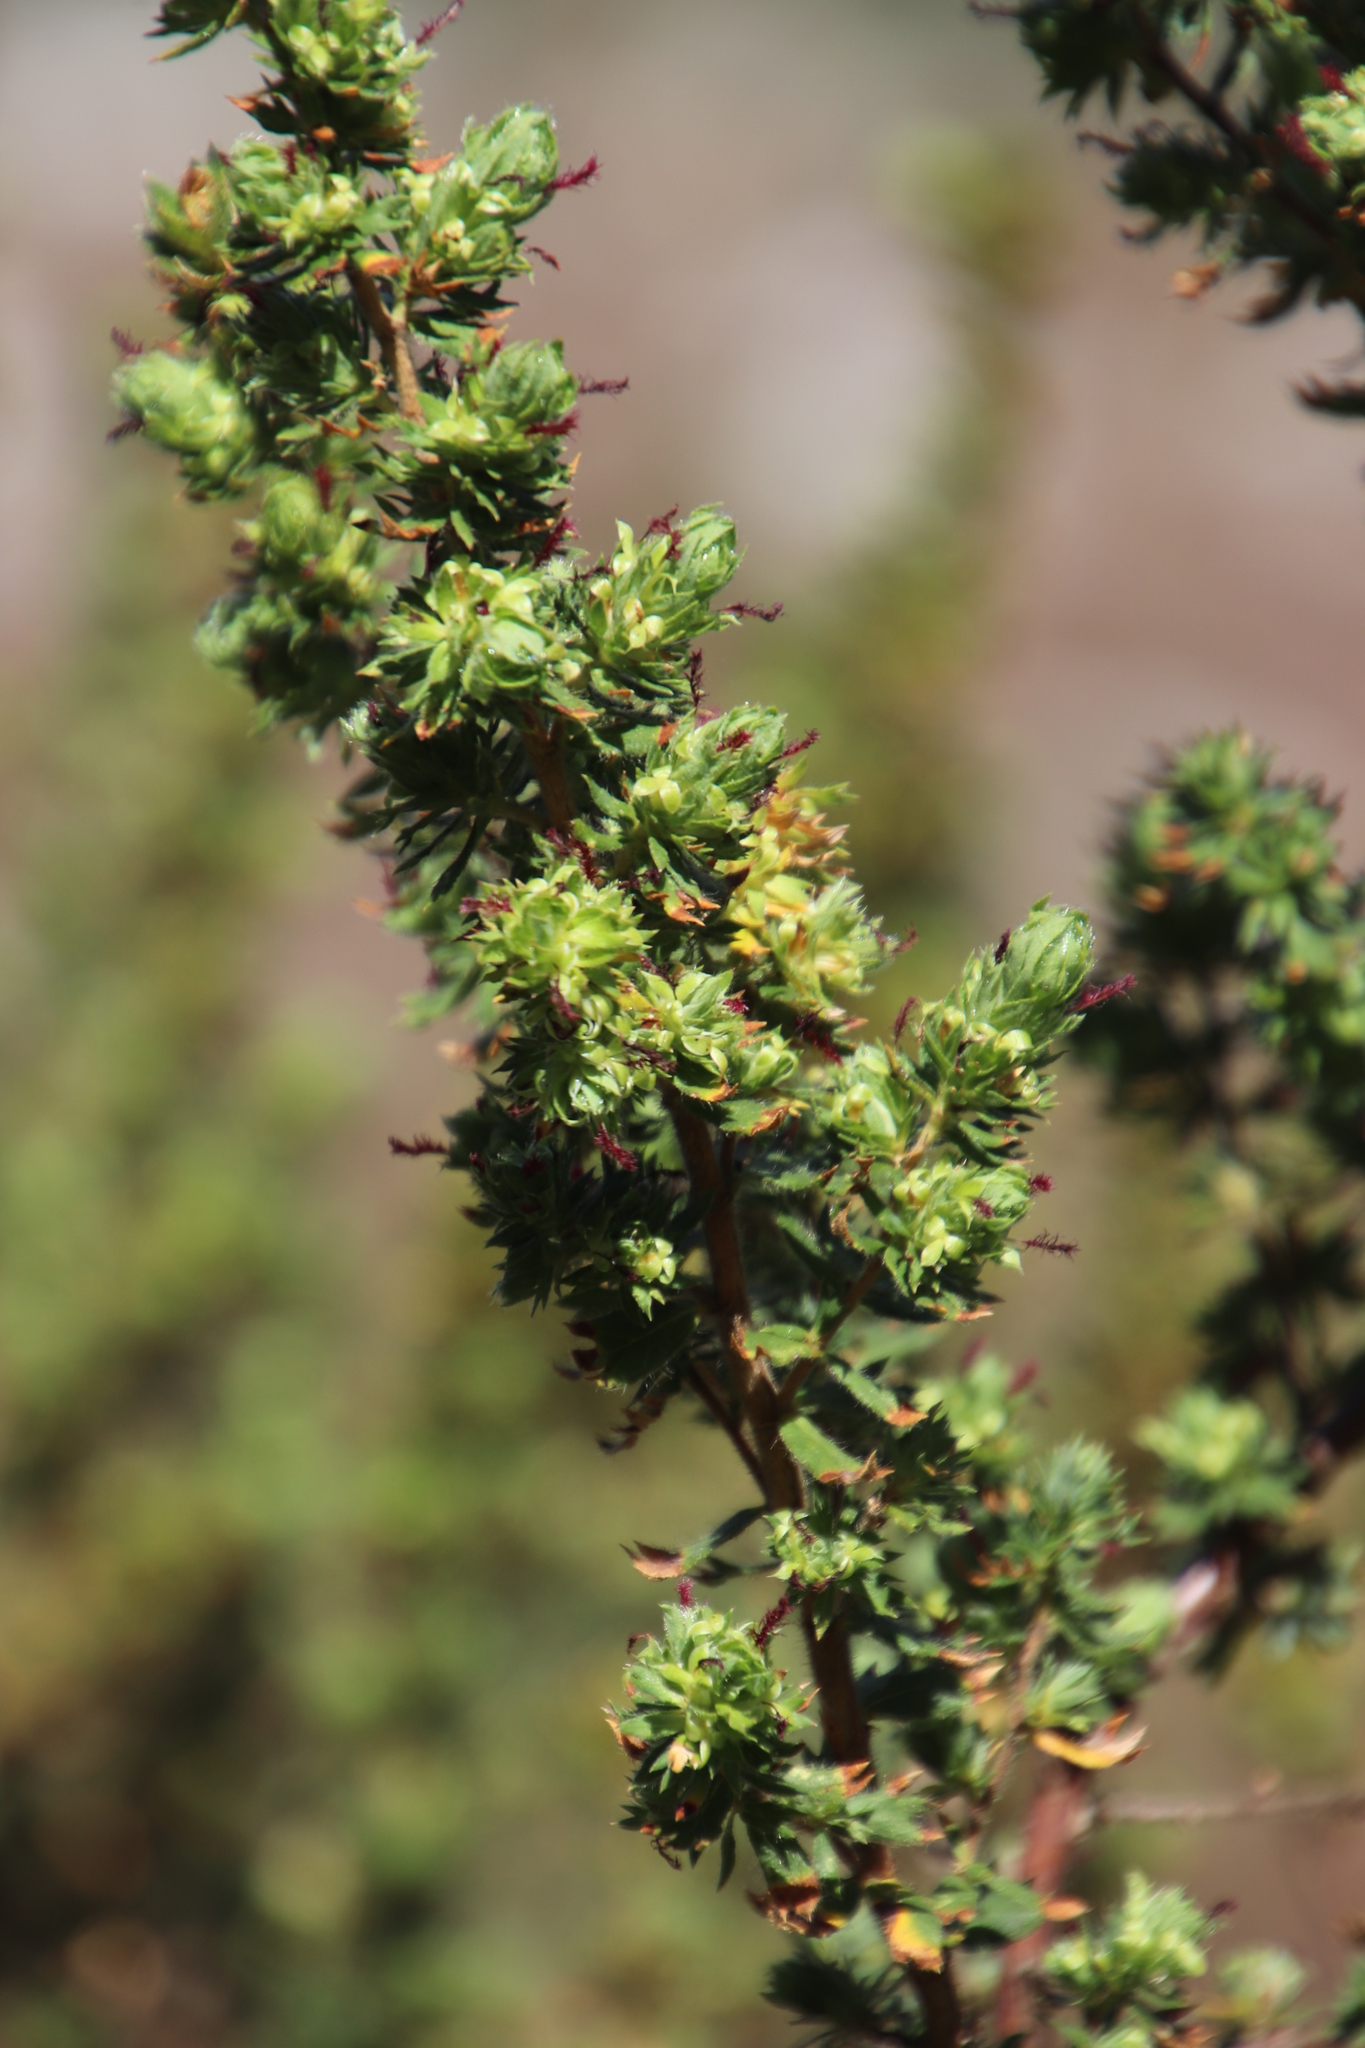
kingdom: Plantae
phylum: Tracheophyta
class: Magnoliopsida
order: Rosales
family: Rosaceae
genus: Cliffortia
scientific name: Cliffortia polygonifolia
